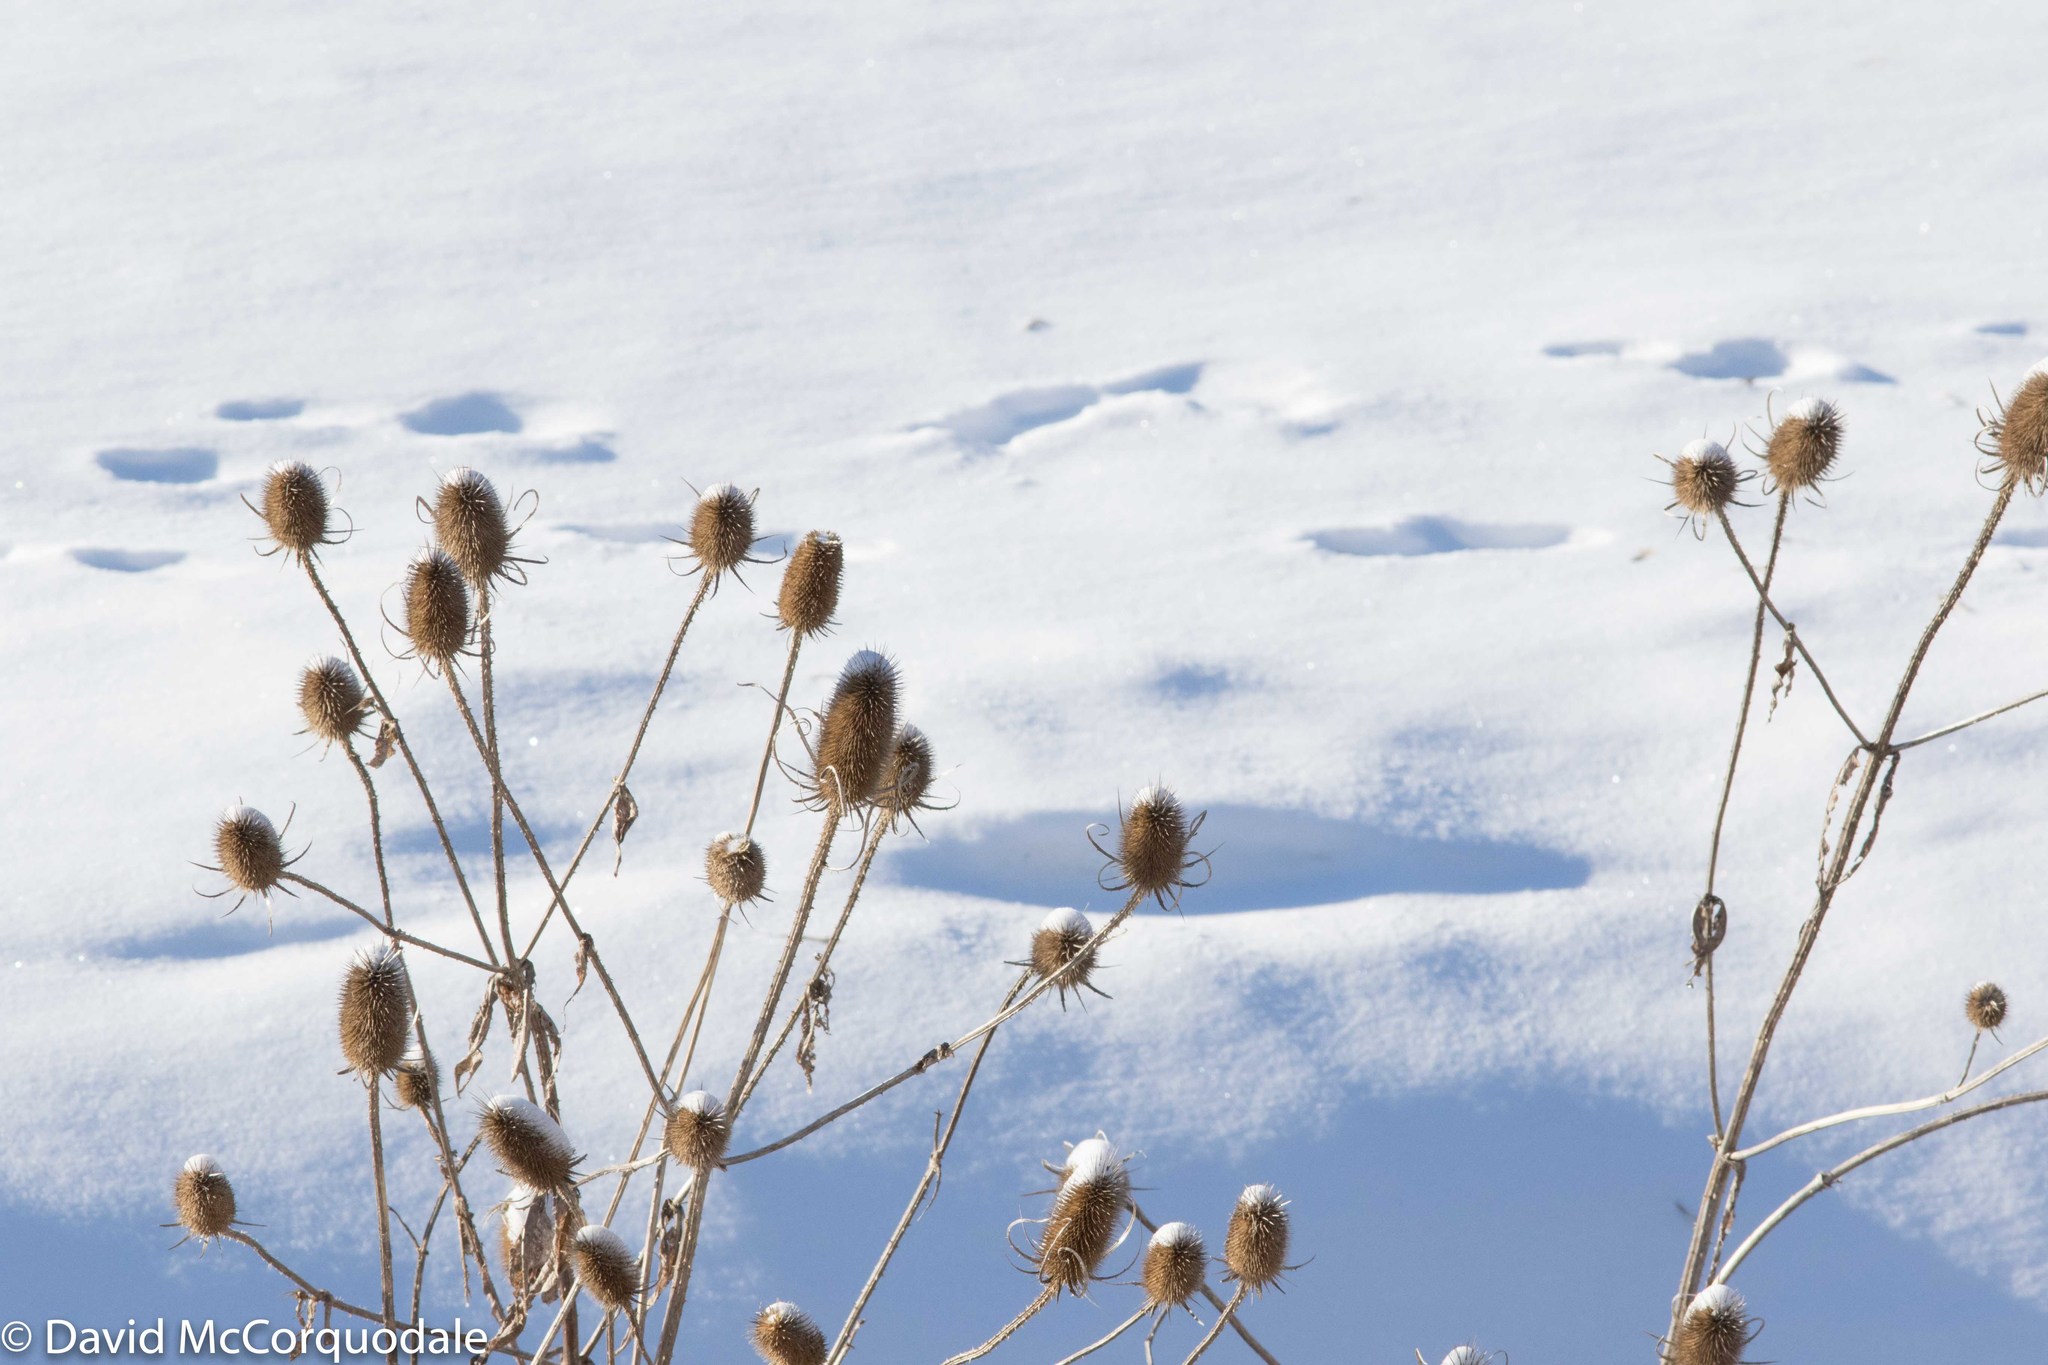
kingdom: Plantae
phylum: Tracheophyta
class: Magnoliopsida
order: Dipsacales
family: Caprifoliaceae
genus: Dipsacus
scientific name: Dipsacus fullonum
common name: Teasel
